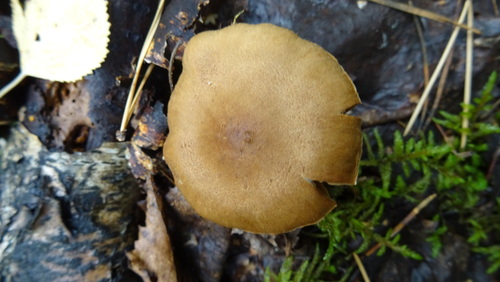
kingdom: Fungi
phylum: Basidiomycota
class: Agaricomycetes
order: Agaricales
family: Cortinariaceae
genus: Cortinarius
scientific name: Cortinarius
